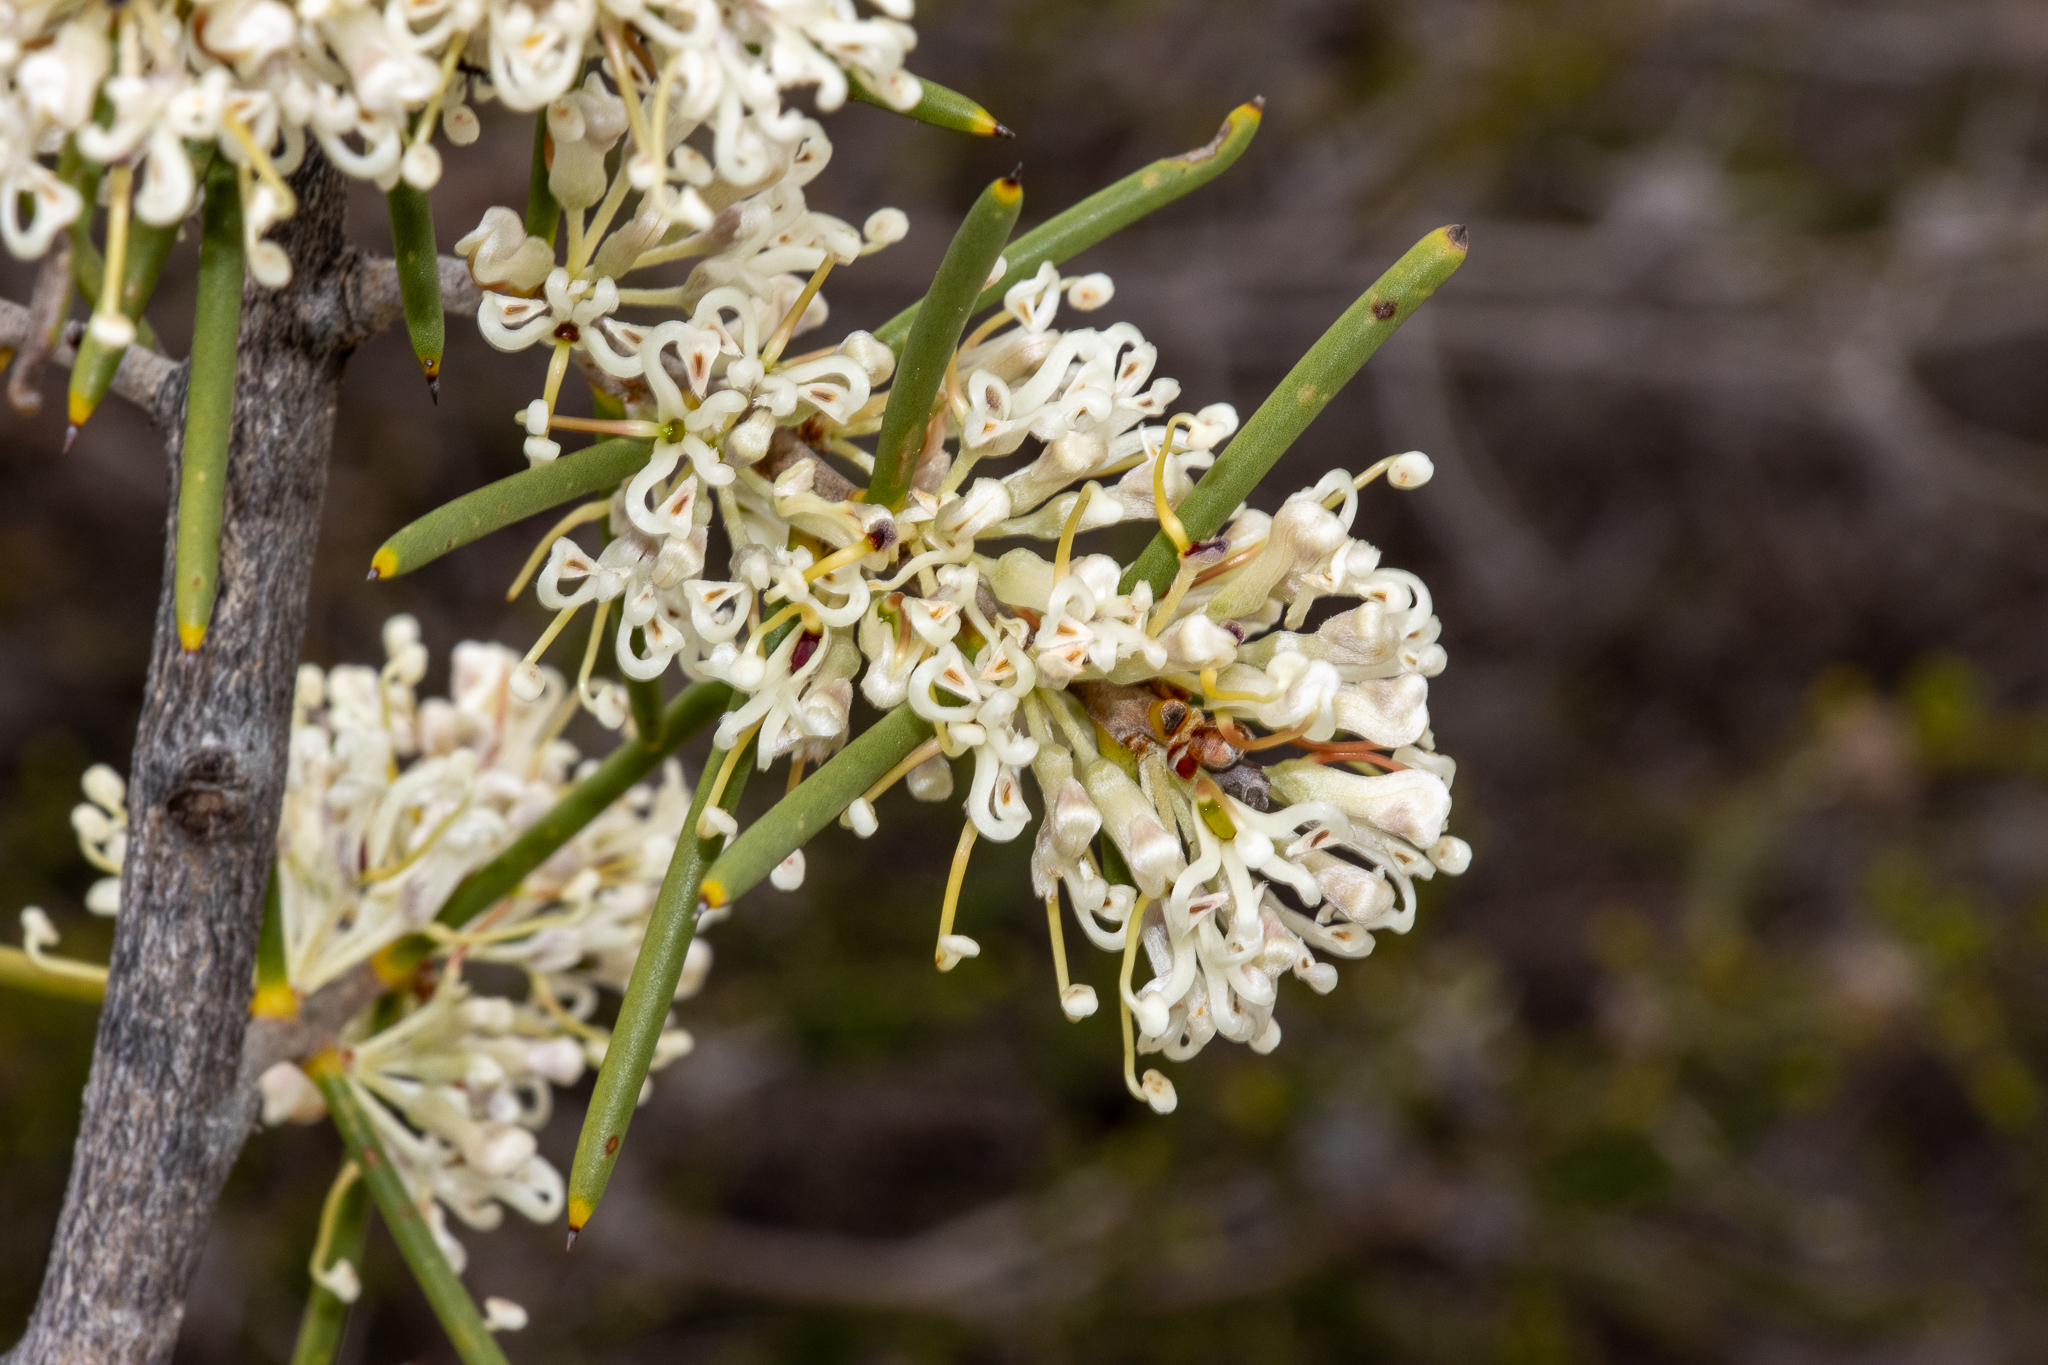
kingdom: Plantae
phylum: Tracheophyta
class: Magnoliopsida
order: Proteales
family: Proteaceae
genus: Hakea
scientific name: Hakea psilorrhyncha
